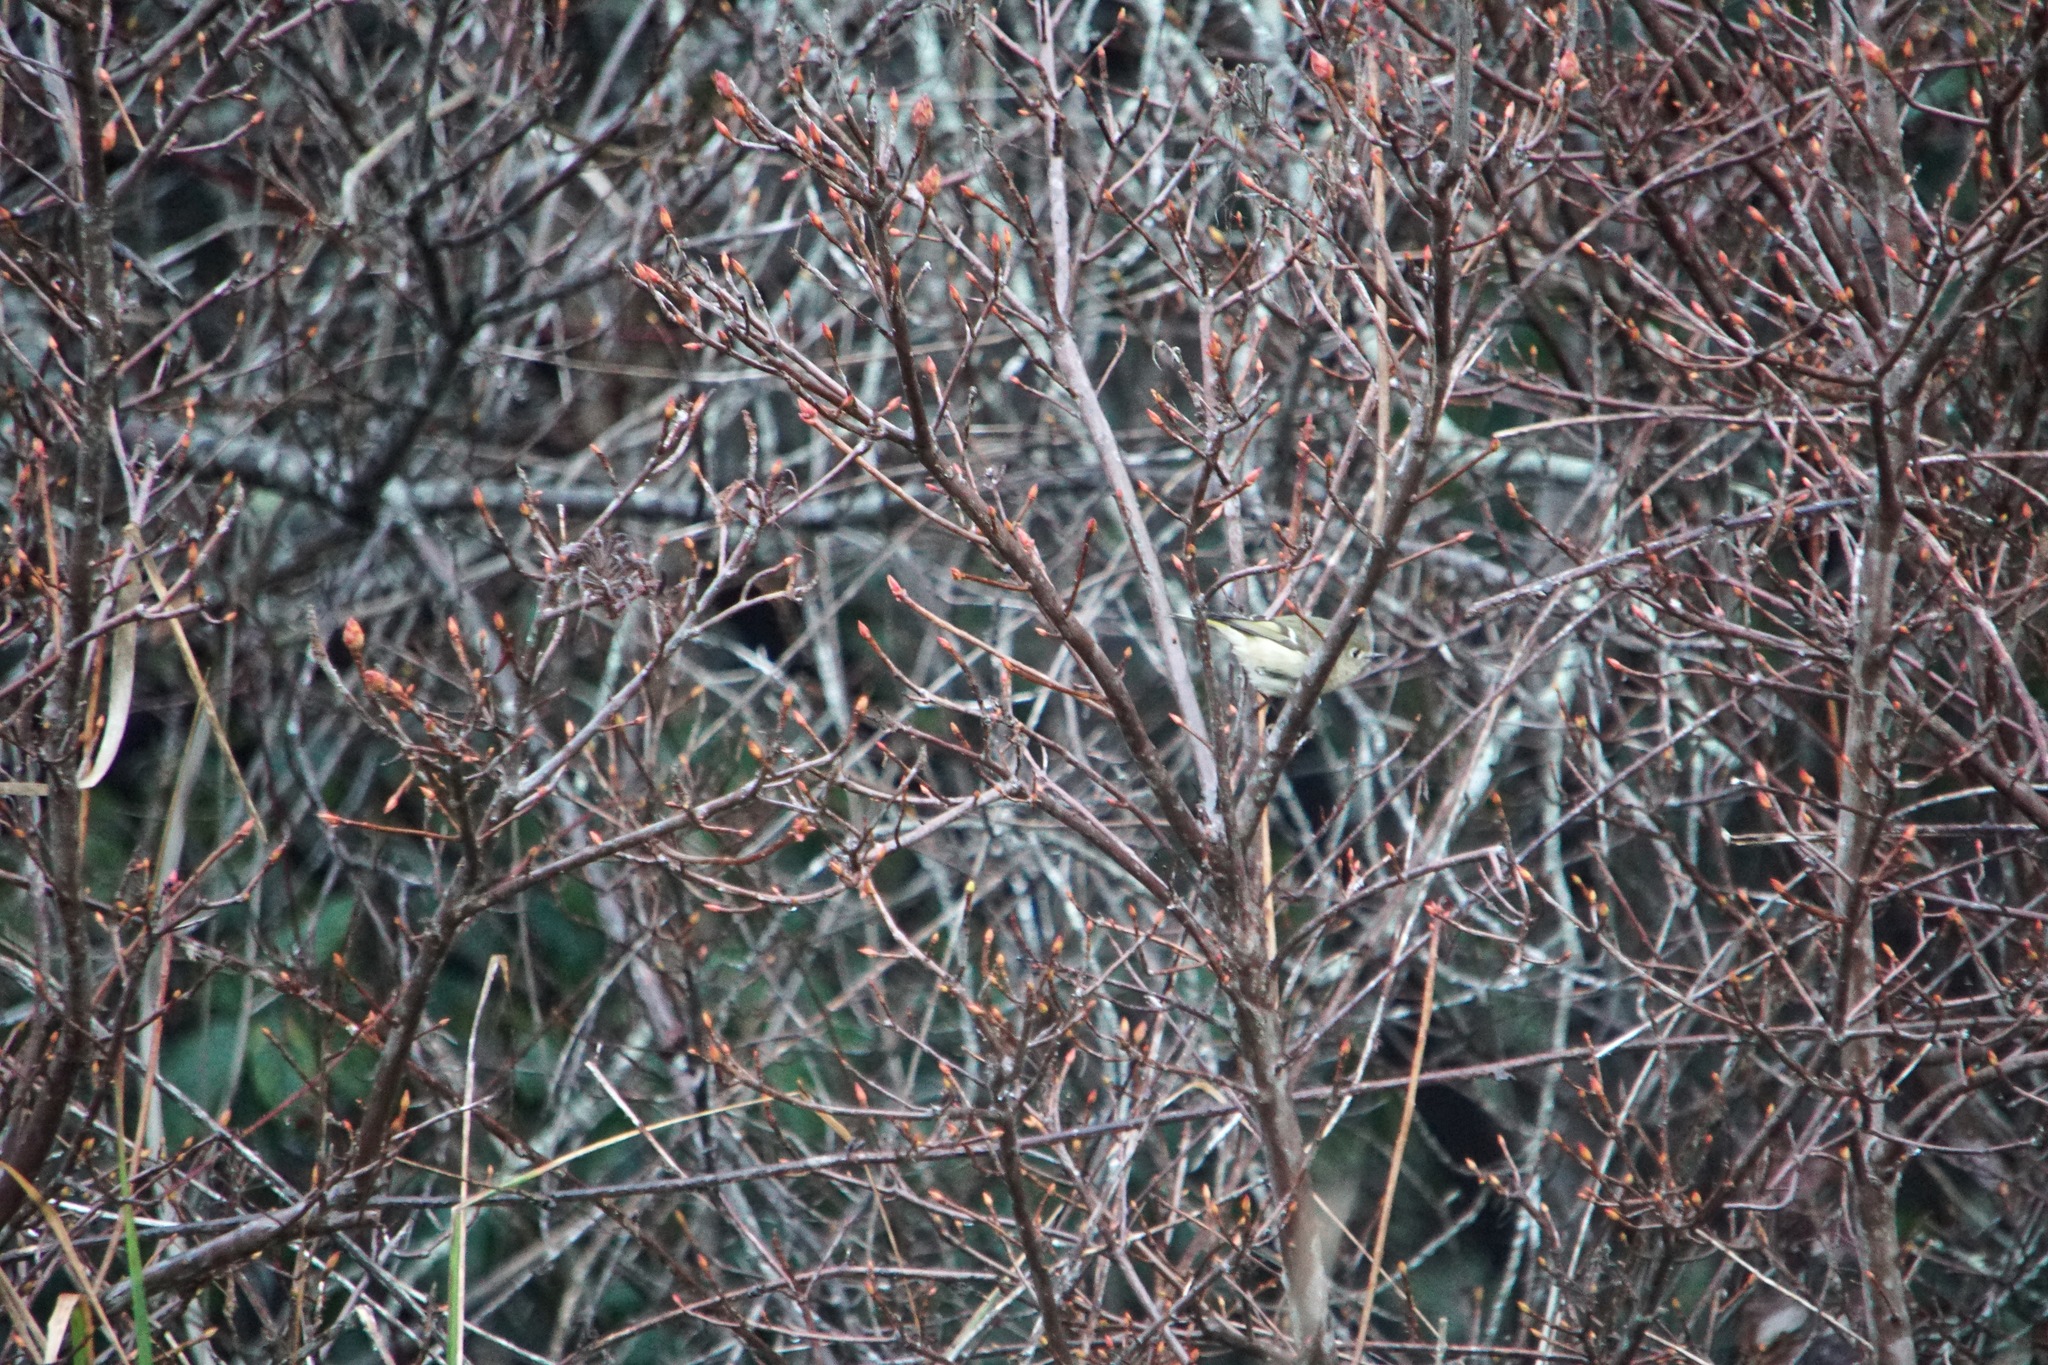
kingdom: Animalia
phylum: Chordata
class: Aves
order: Passeriformes
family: Regulidae
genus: Regulus
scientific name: Regulus calendula
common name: Ruby-crowned kinglet
